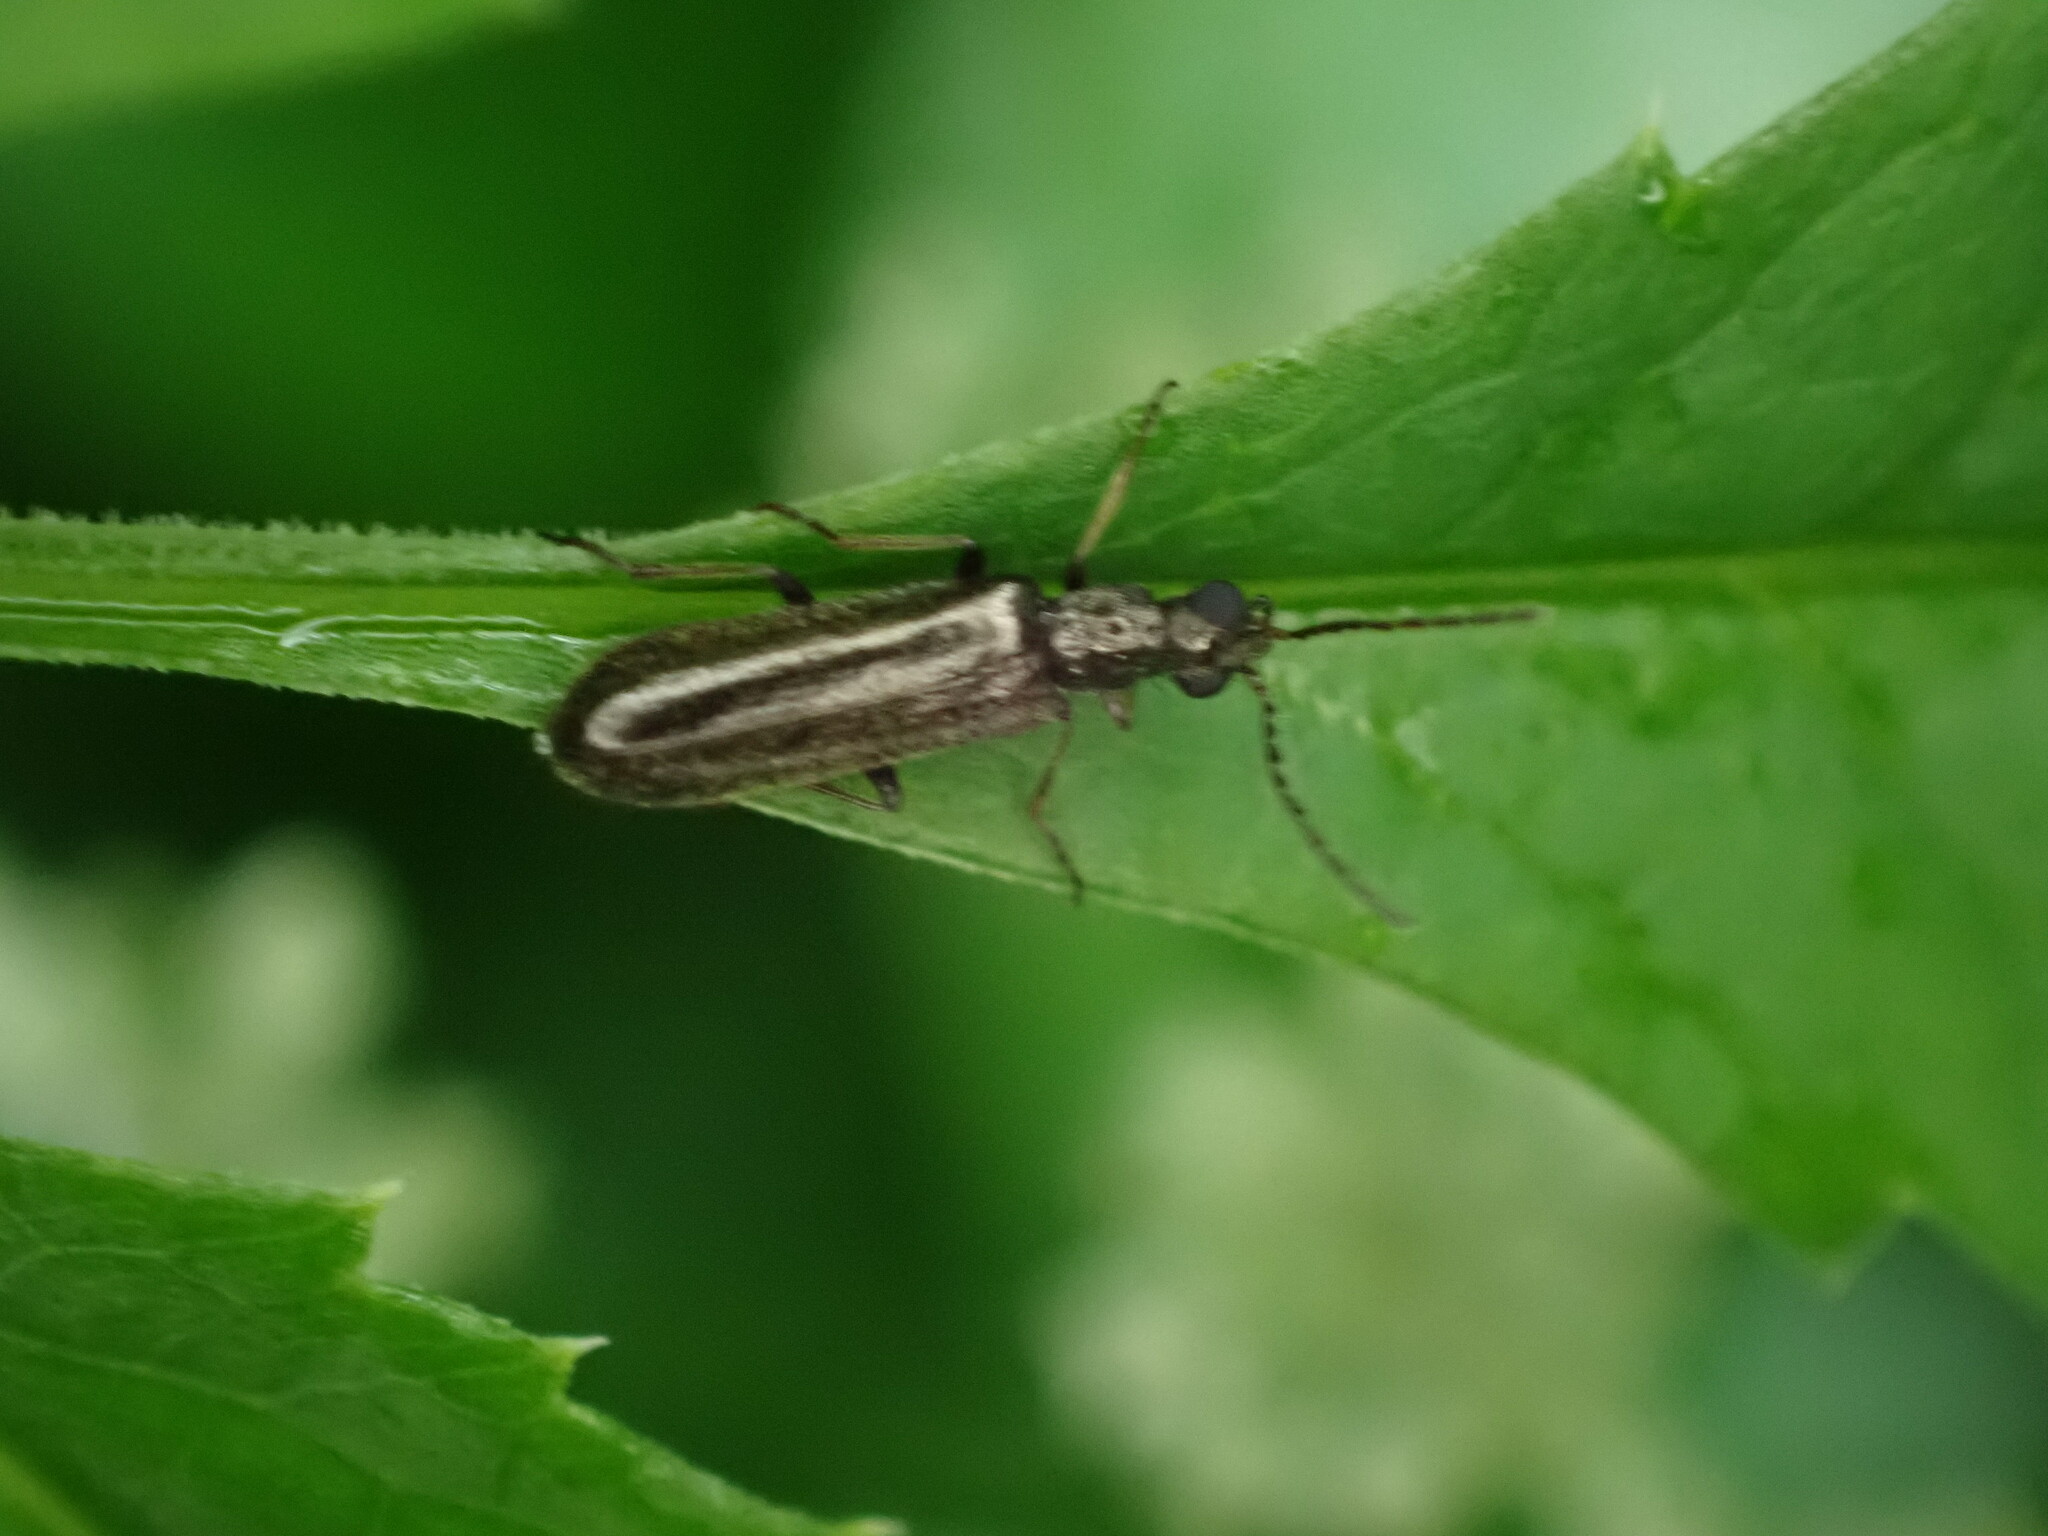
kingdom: Animalia
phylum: Arthropoda
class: Insecta
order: Coleoptera
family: Melyridae
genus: Dasytes
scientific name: Dasytes plumbeus
